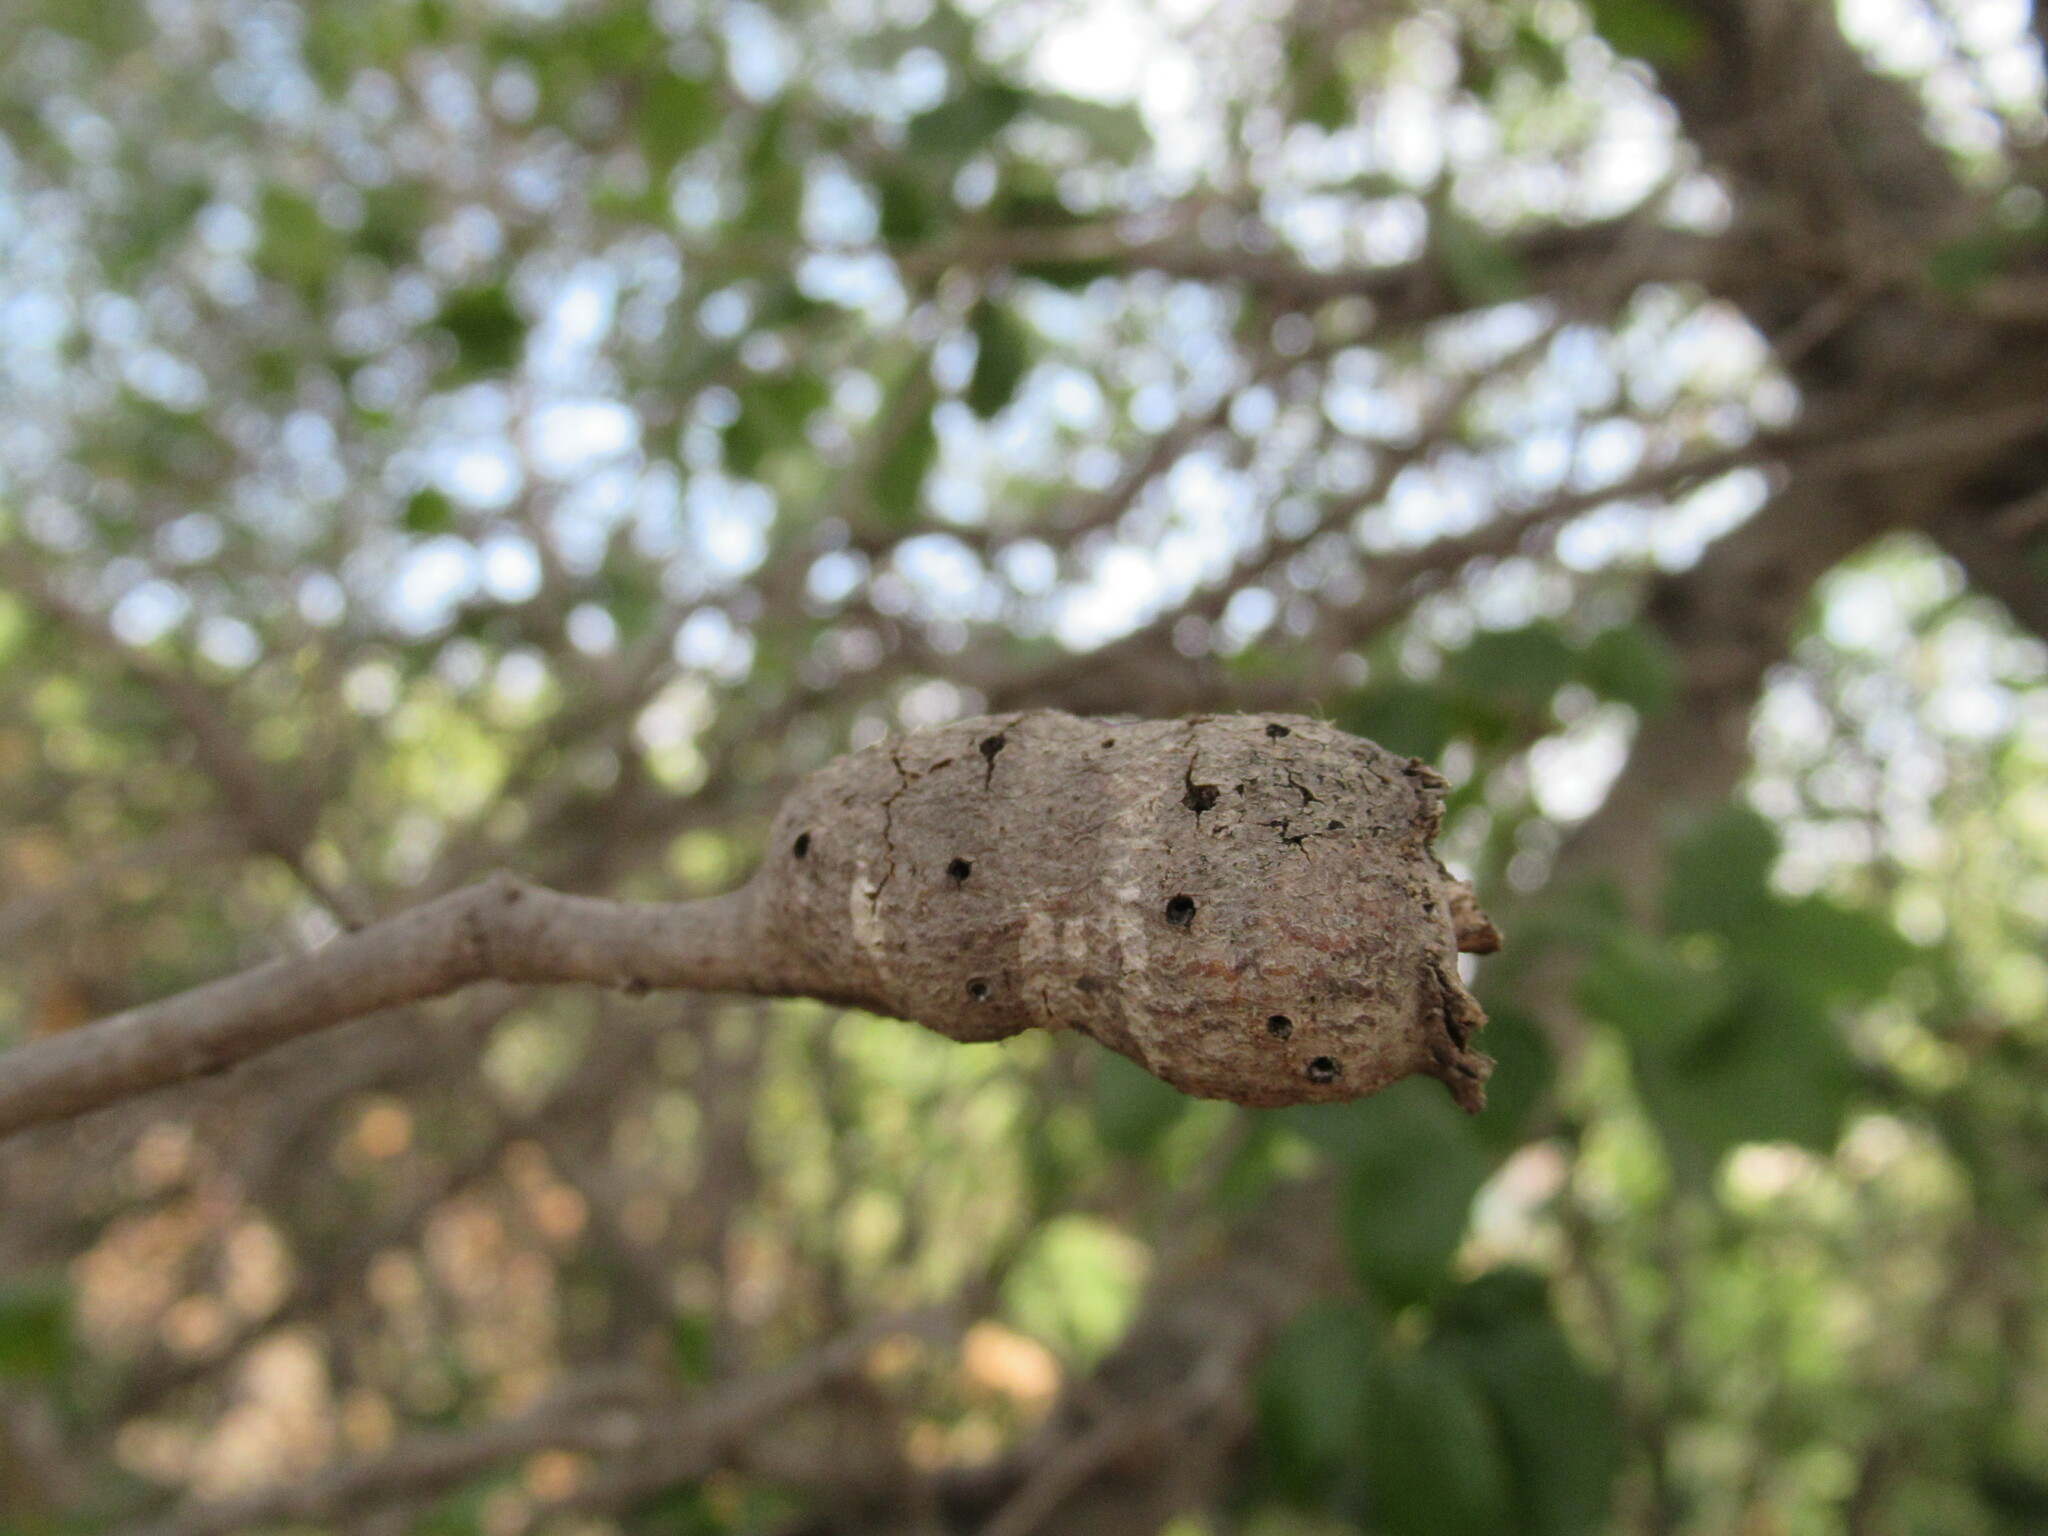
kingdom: Animalia
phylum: Arthropoda
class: Insecta
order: Hymenoptera
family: Cynipidae
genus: Callirhytis
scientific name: Callirhytis
